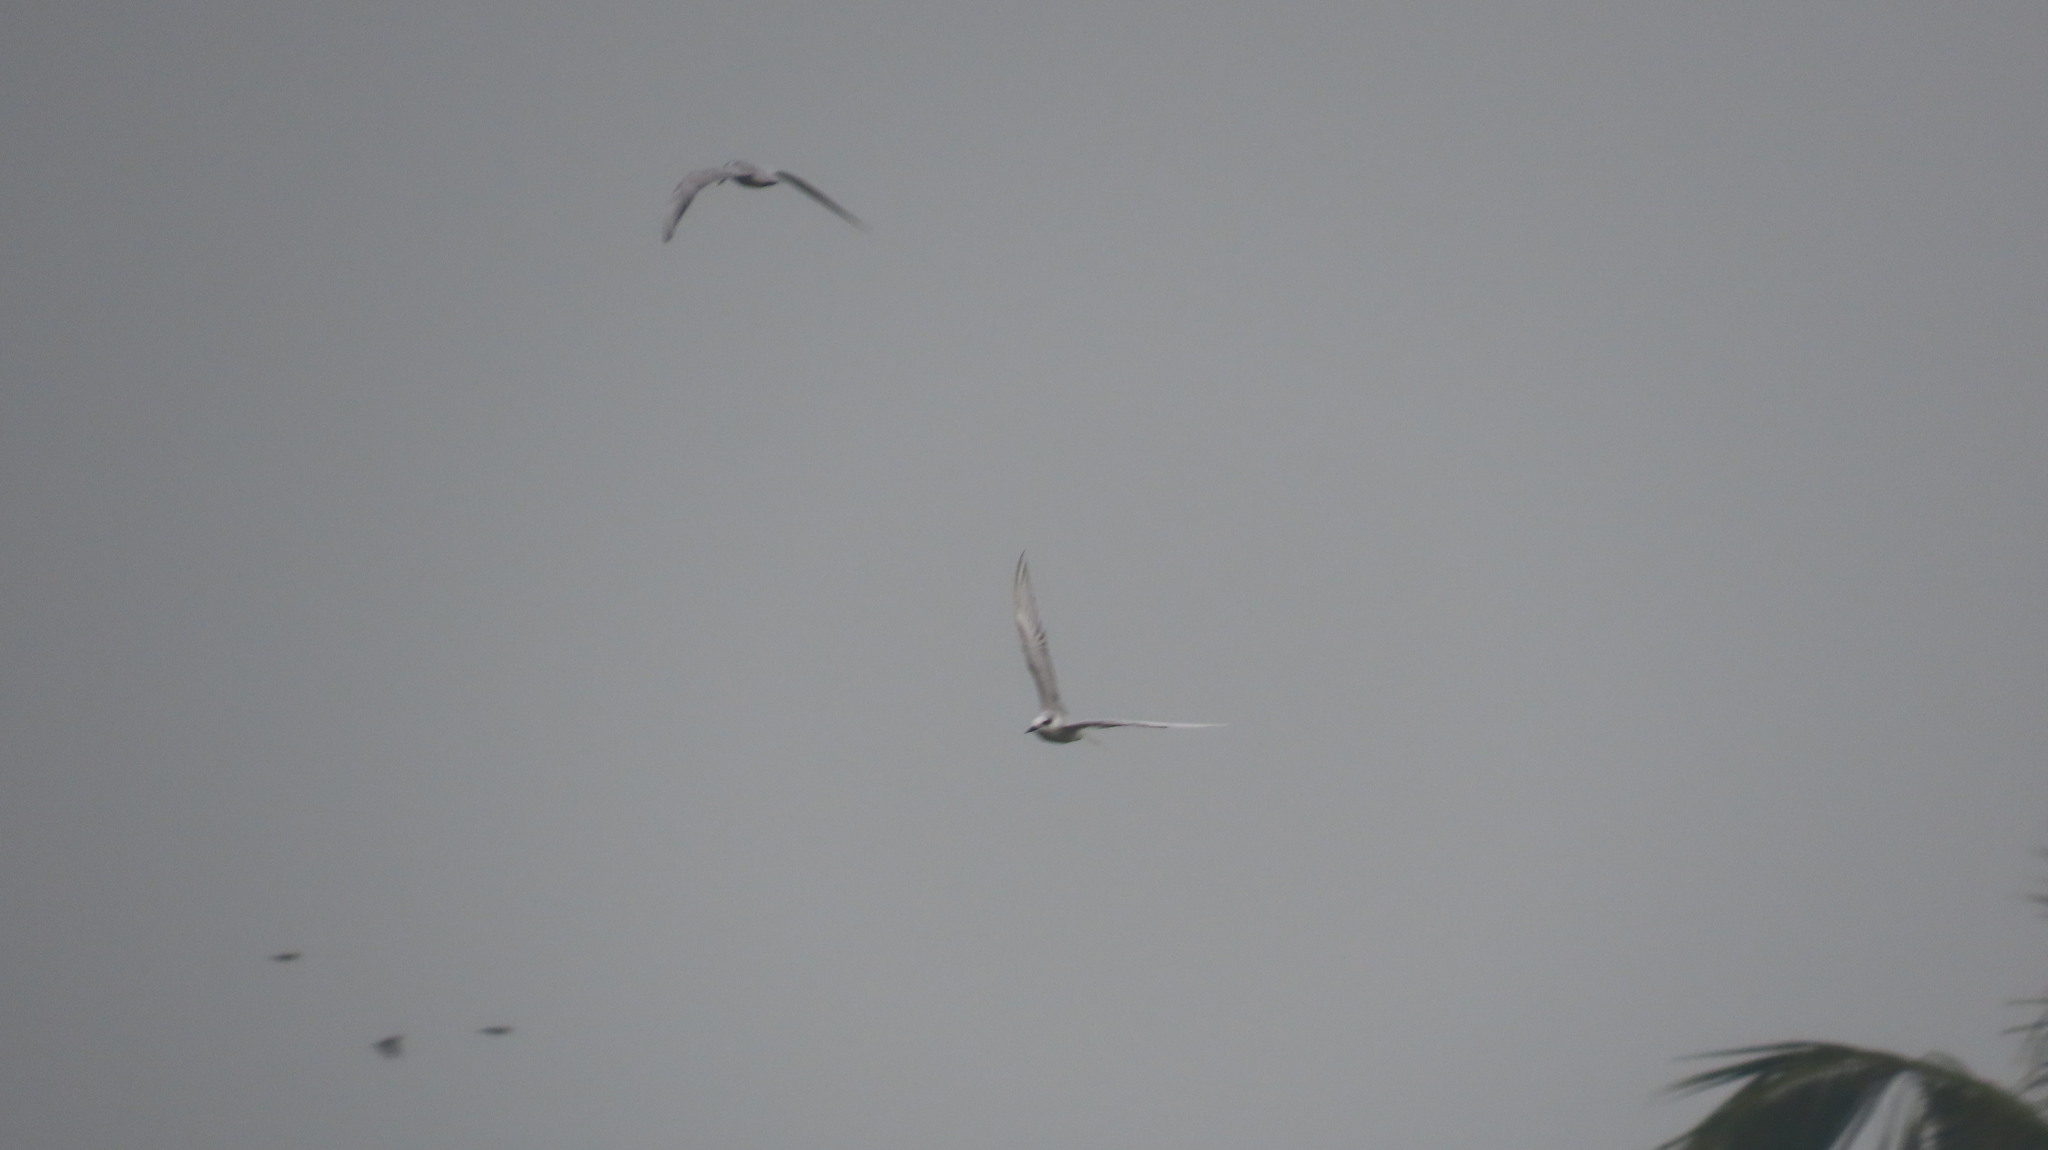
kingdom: Animalia
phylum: Chordata
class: Aves
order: Charadriiformes
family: Laridae
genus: Chlidonias
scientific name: Chlidonias hybrida
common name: Whiskered tern
